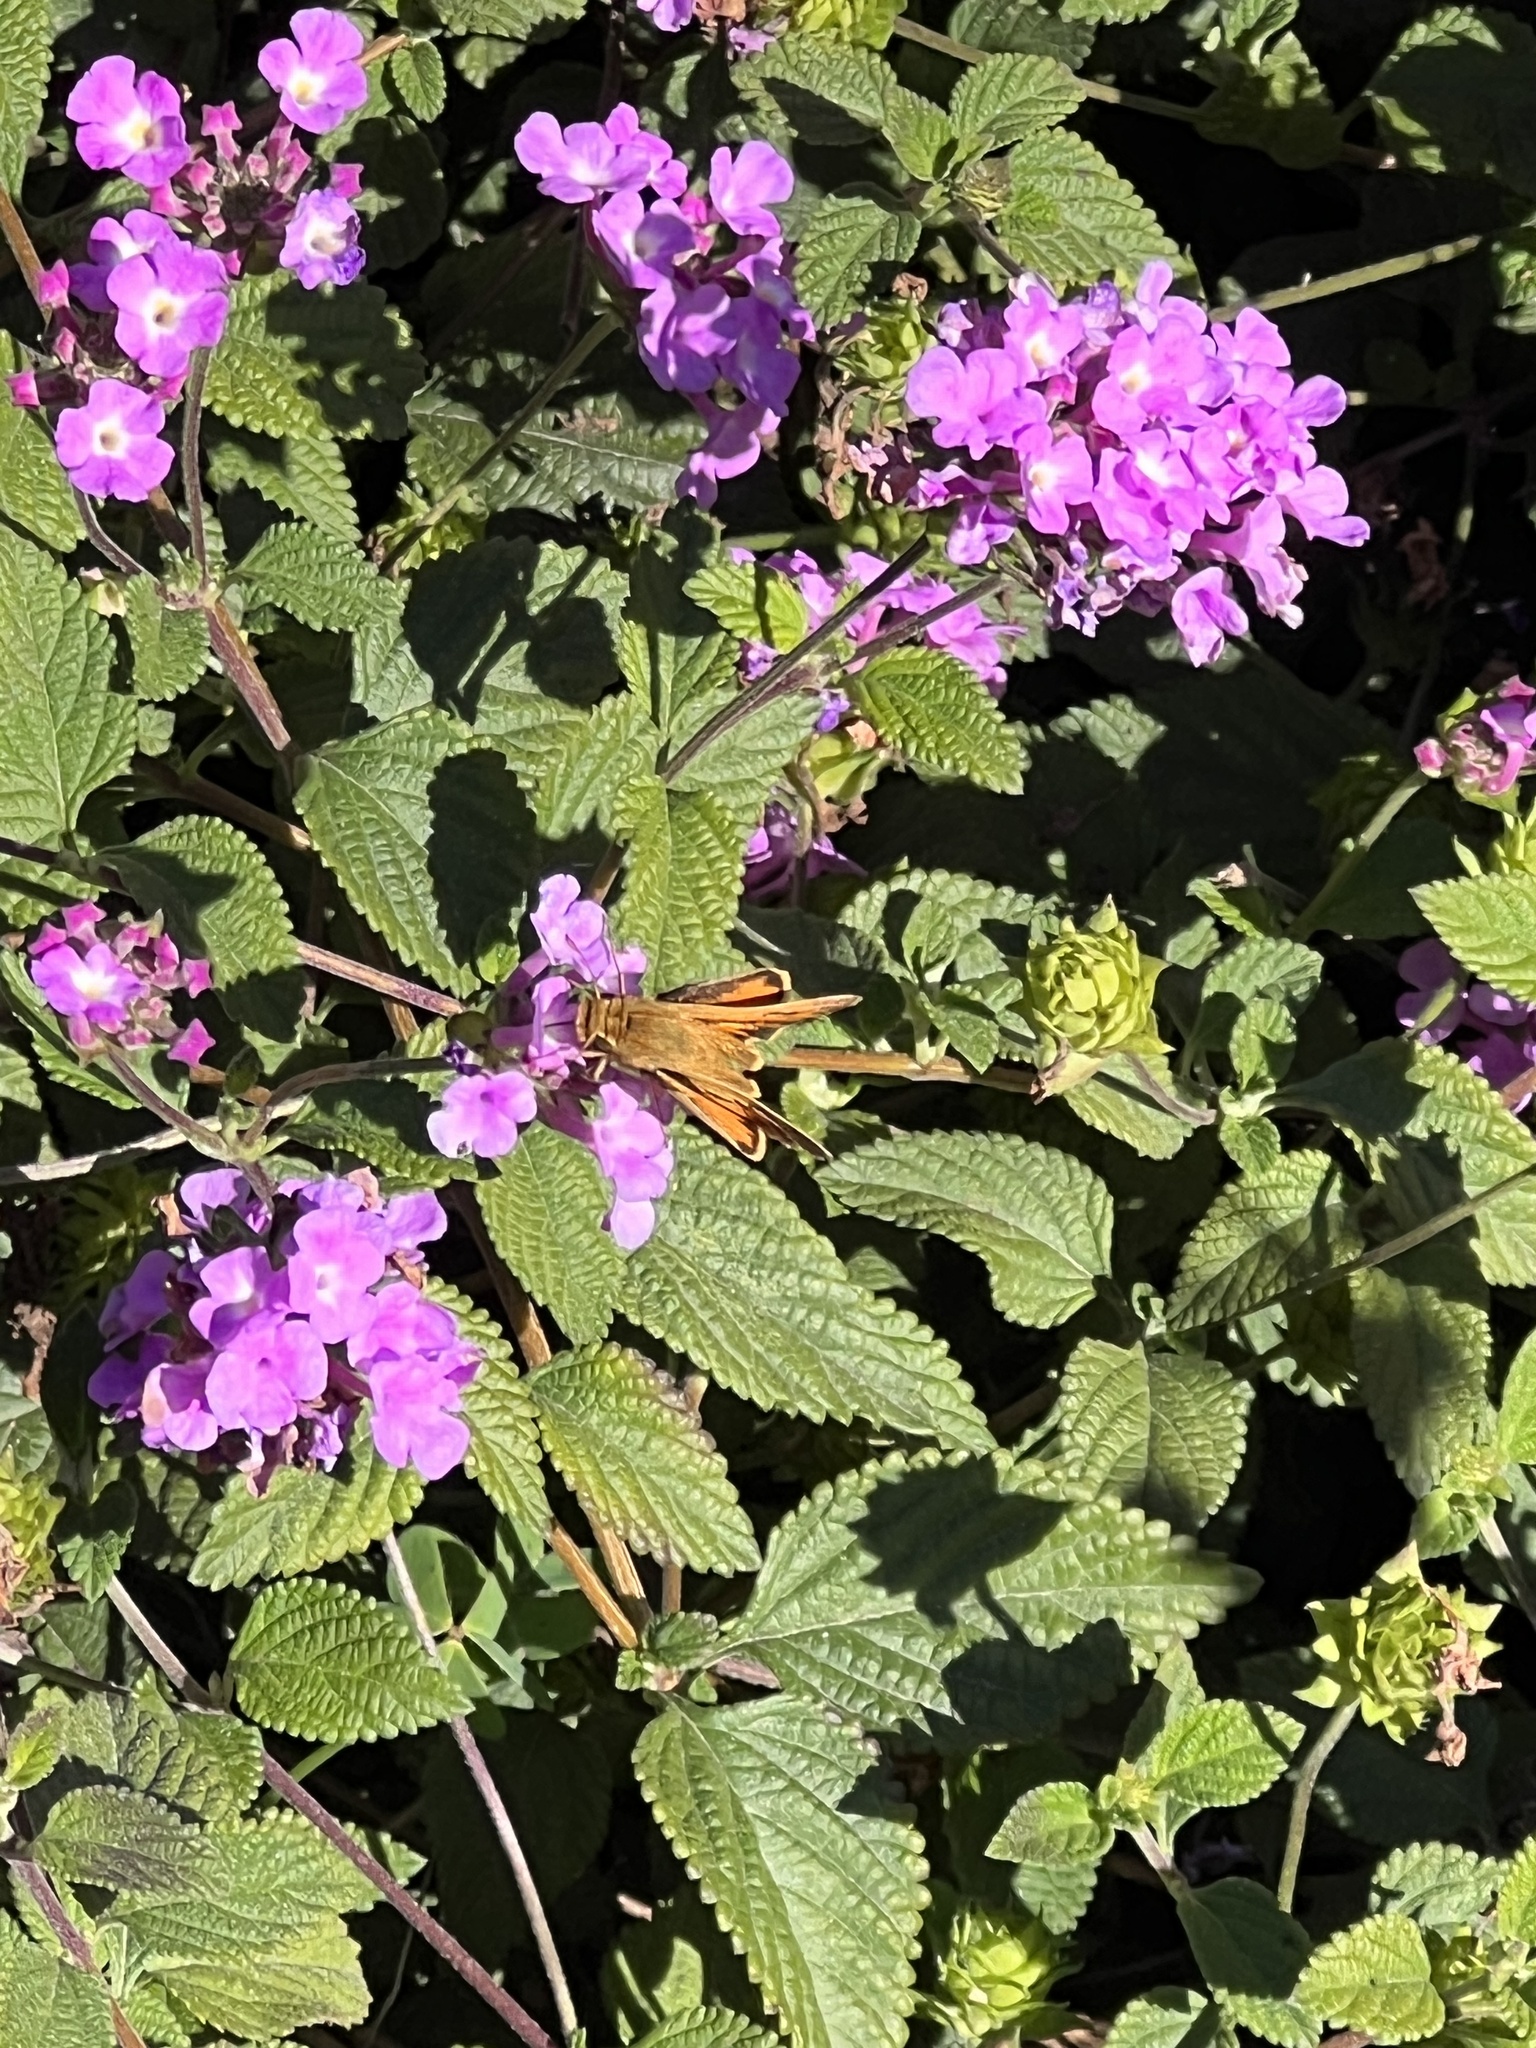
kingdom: Animalia
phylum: Arthropoda
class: Insecta
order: Lepidoptera
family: Hesperiidae
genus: Hylephila
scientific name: Hylephila phyleus
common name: Fiery skipper
